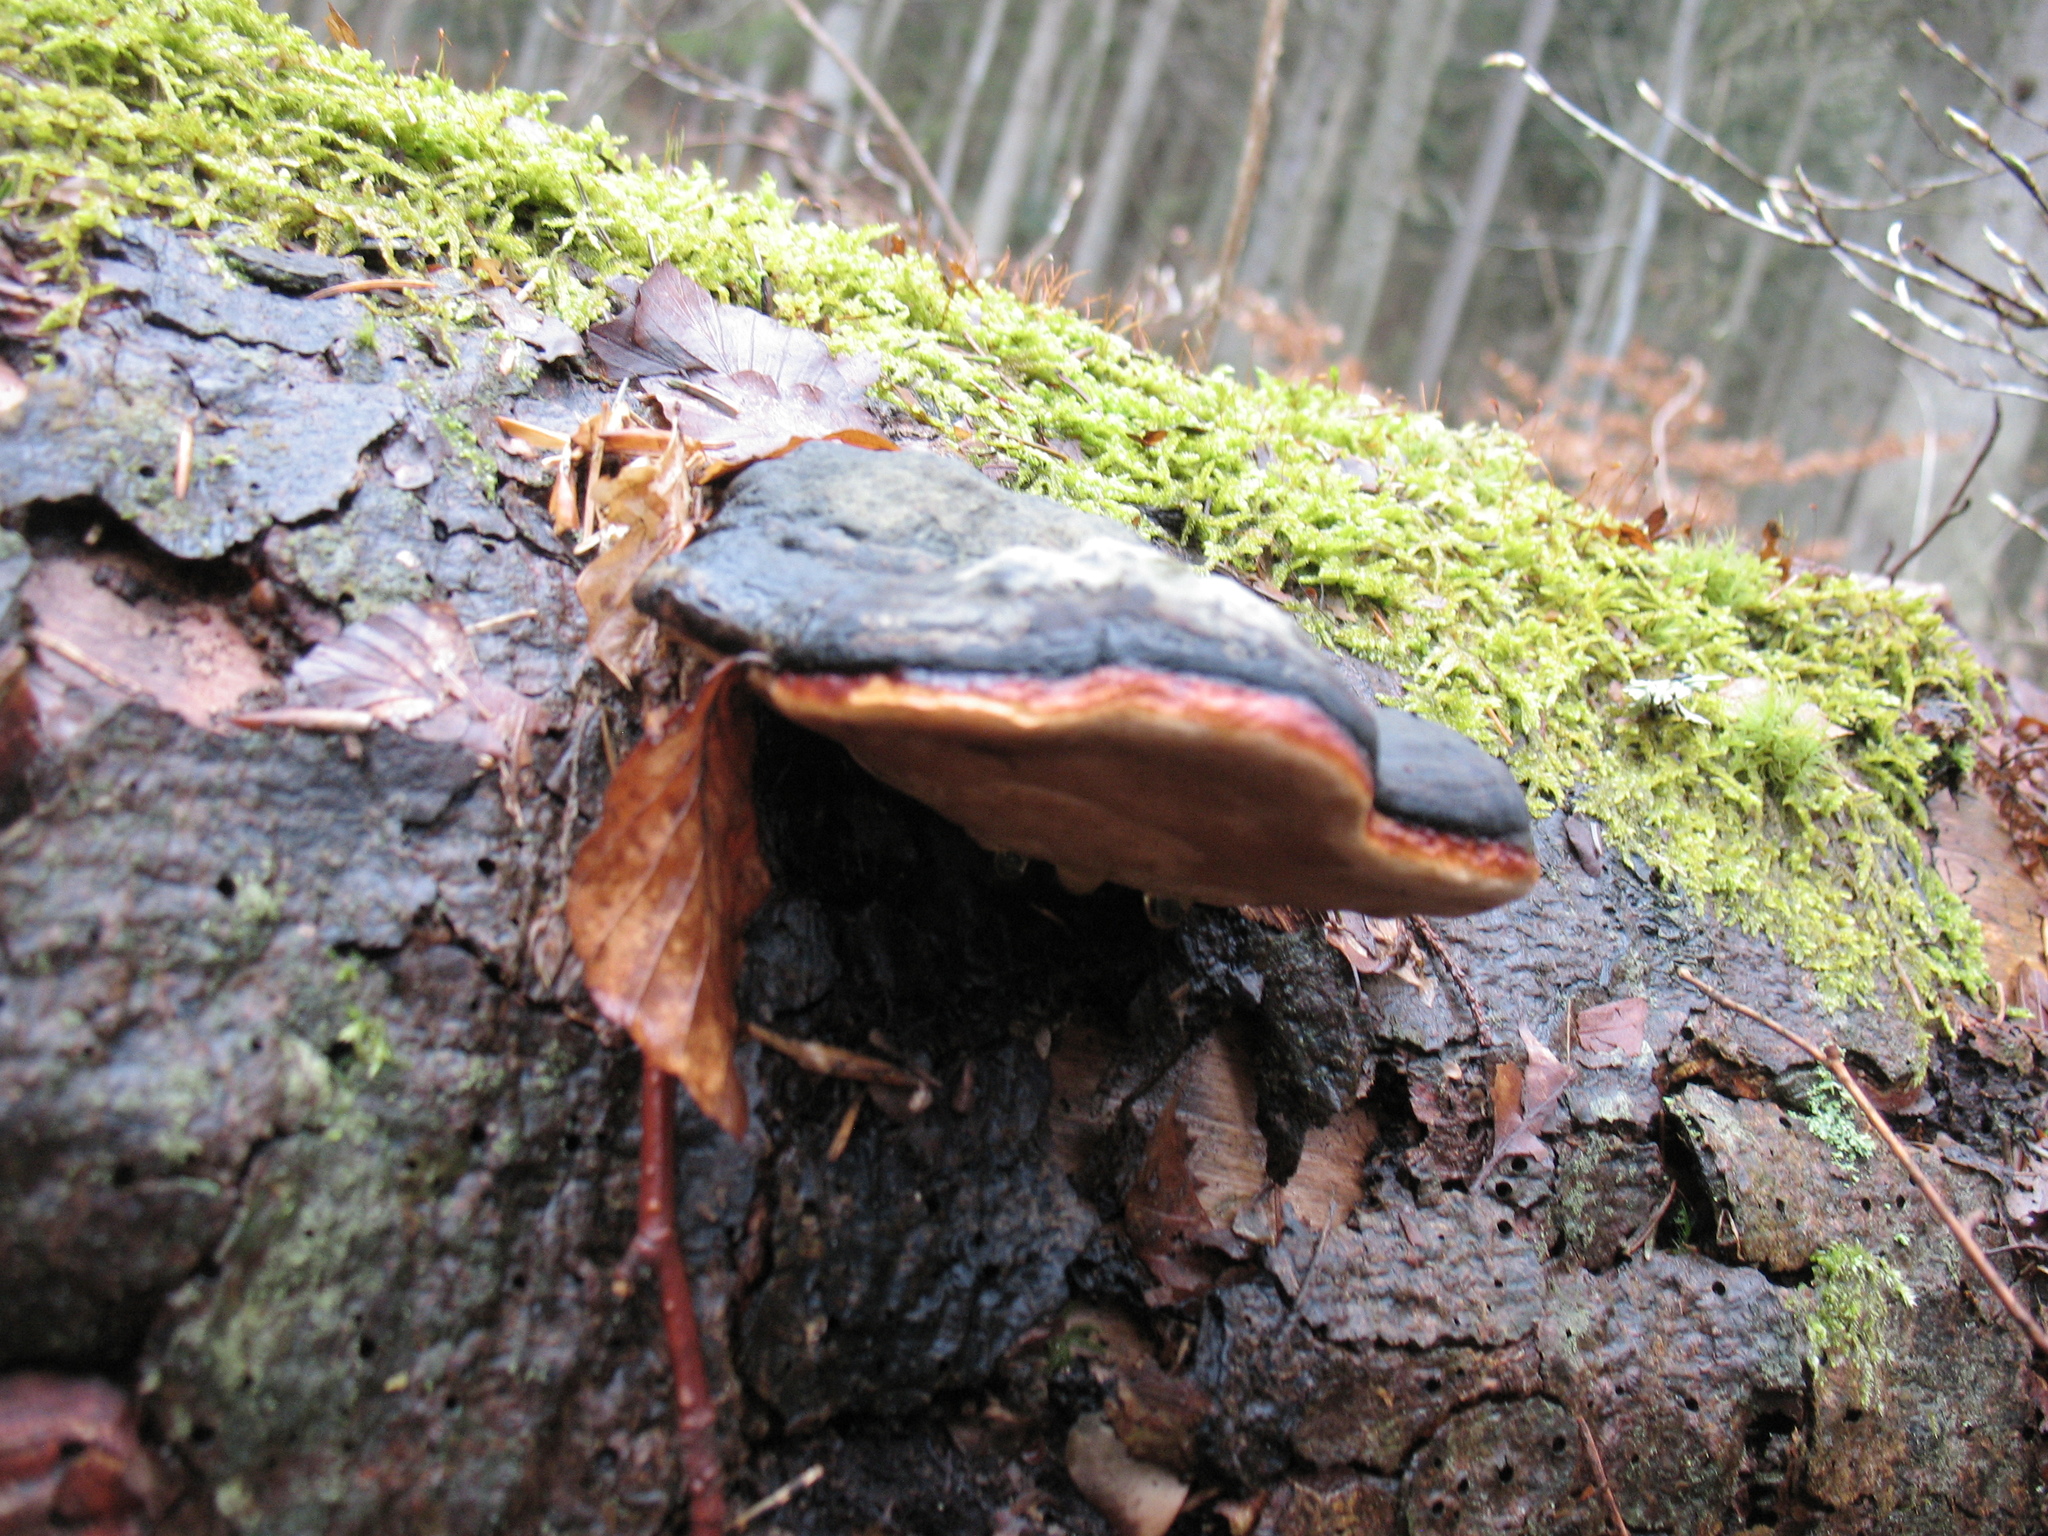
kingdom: Fungi
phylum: Basidiomycota
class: Agaricomycetes
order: Polyporales
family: Fomitopsidaceae
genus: Fomitopsis
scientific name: Fomitopsis pinicola
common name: Red-belted bracket
